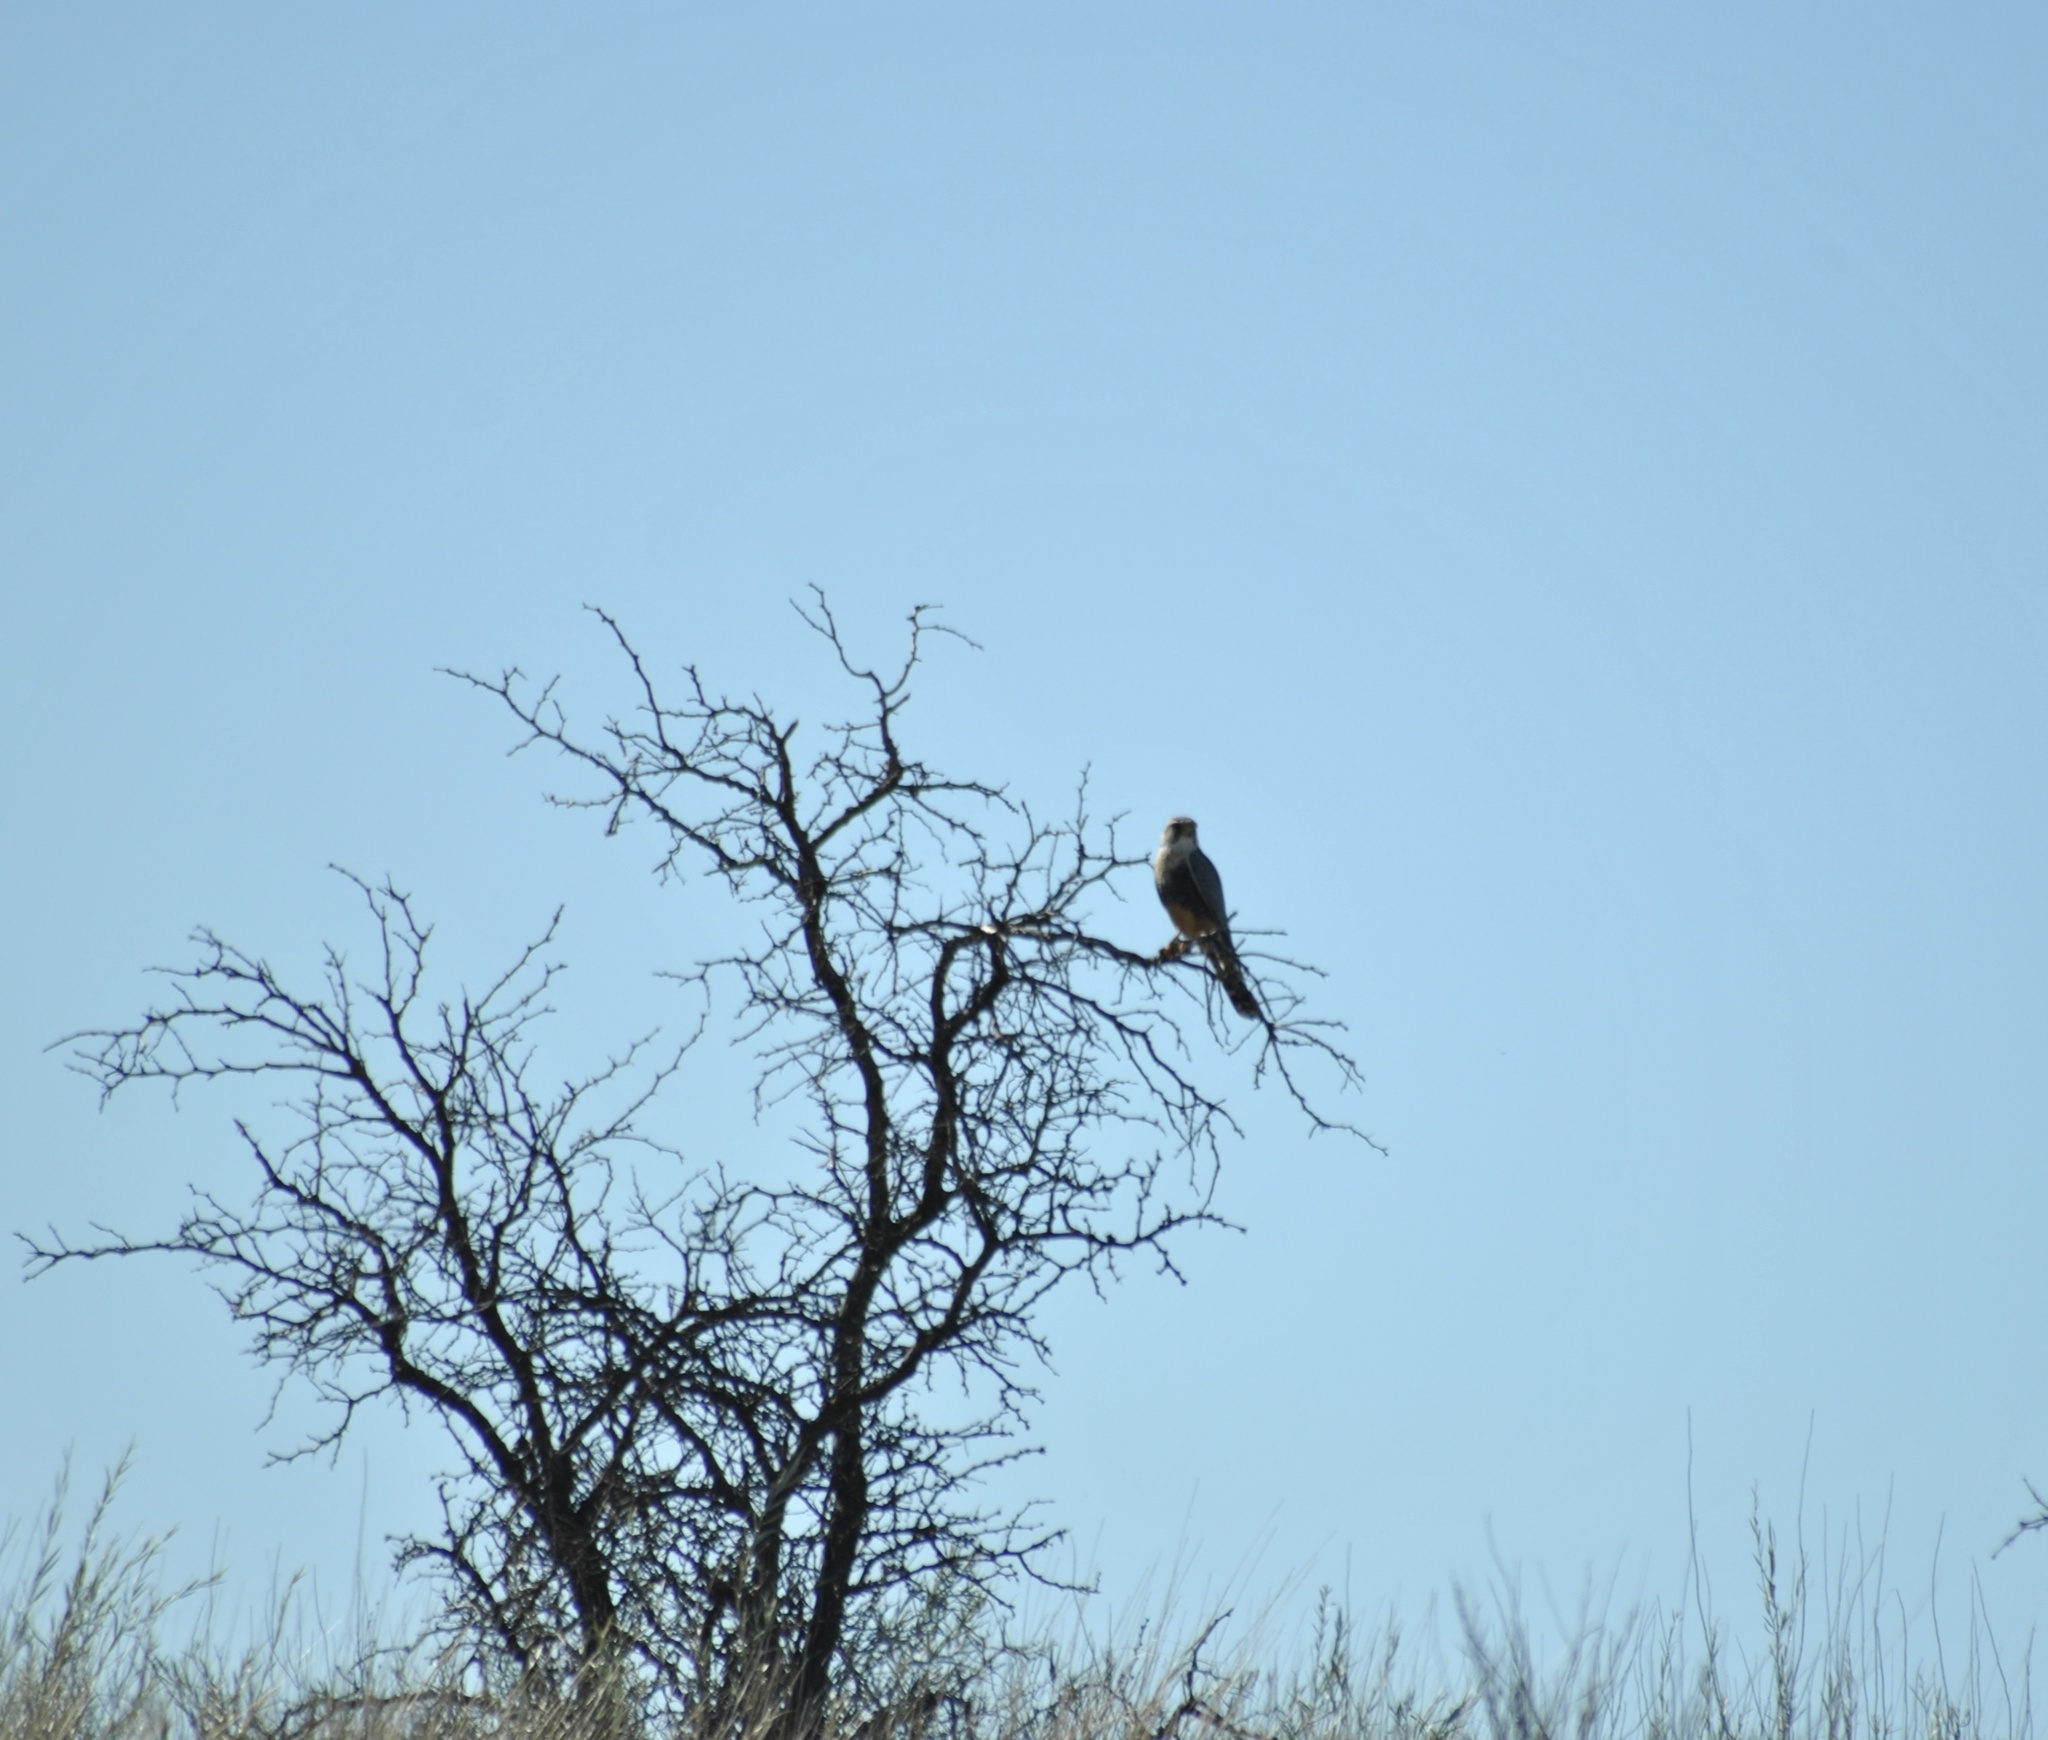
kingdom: Animalia
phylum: Chordata
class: Aves
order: Falconiformes
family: Falconidae
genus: Falco
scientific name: Falco femoralis
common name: Aplomado falcon
